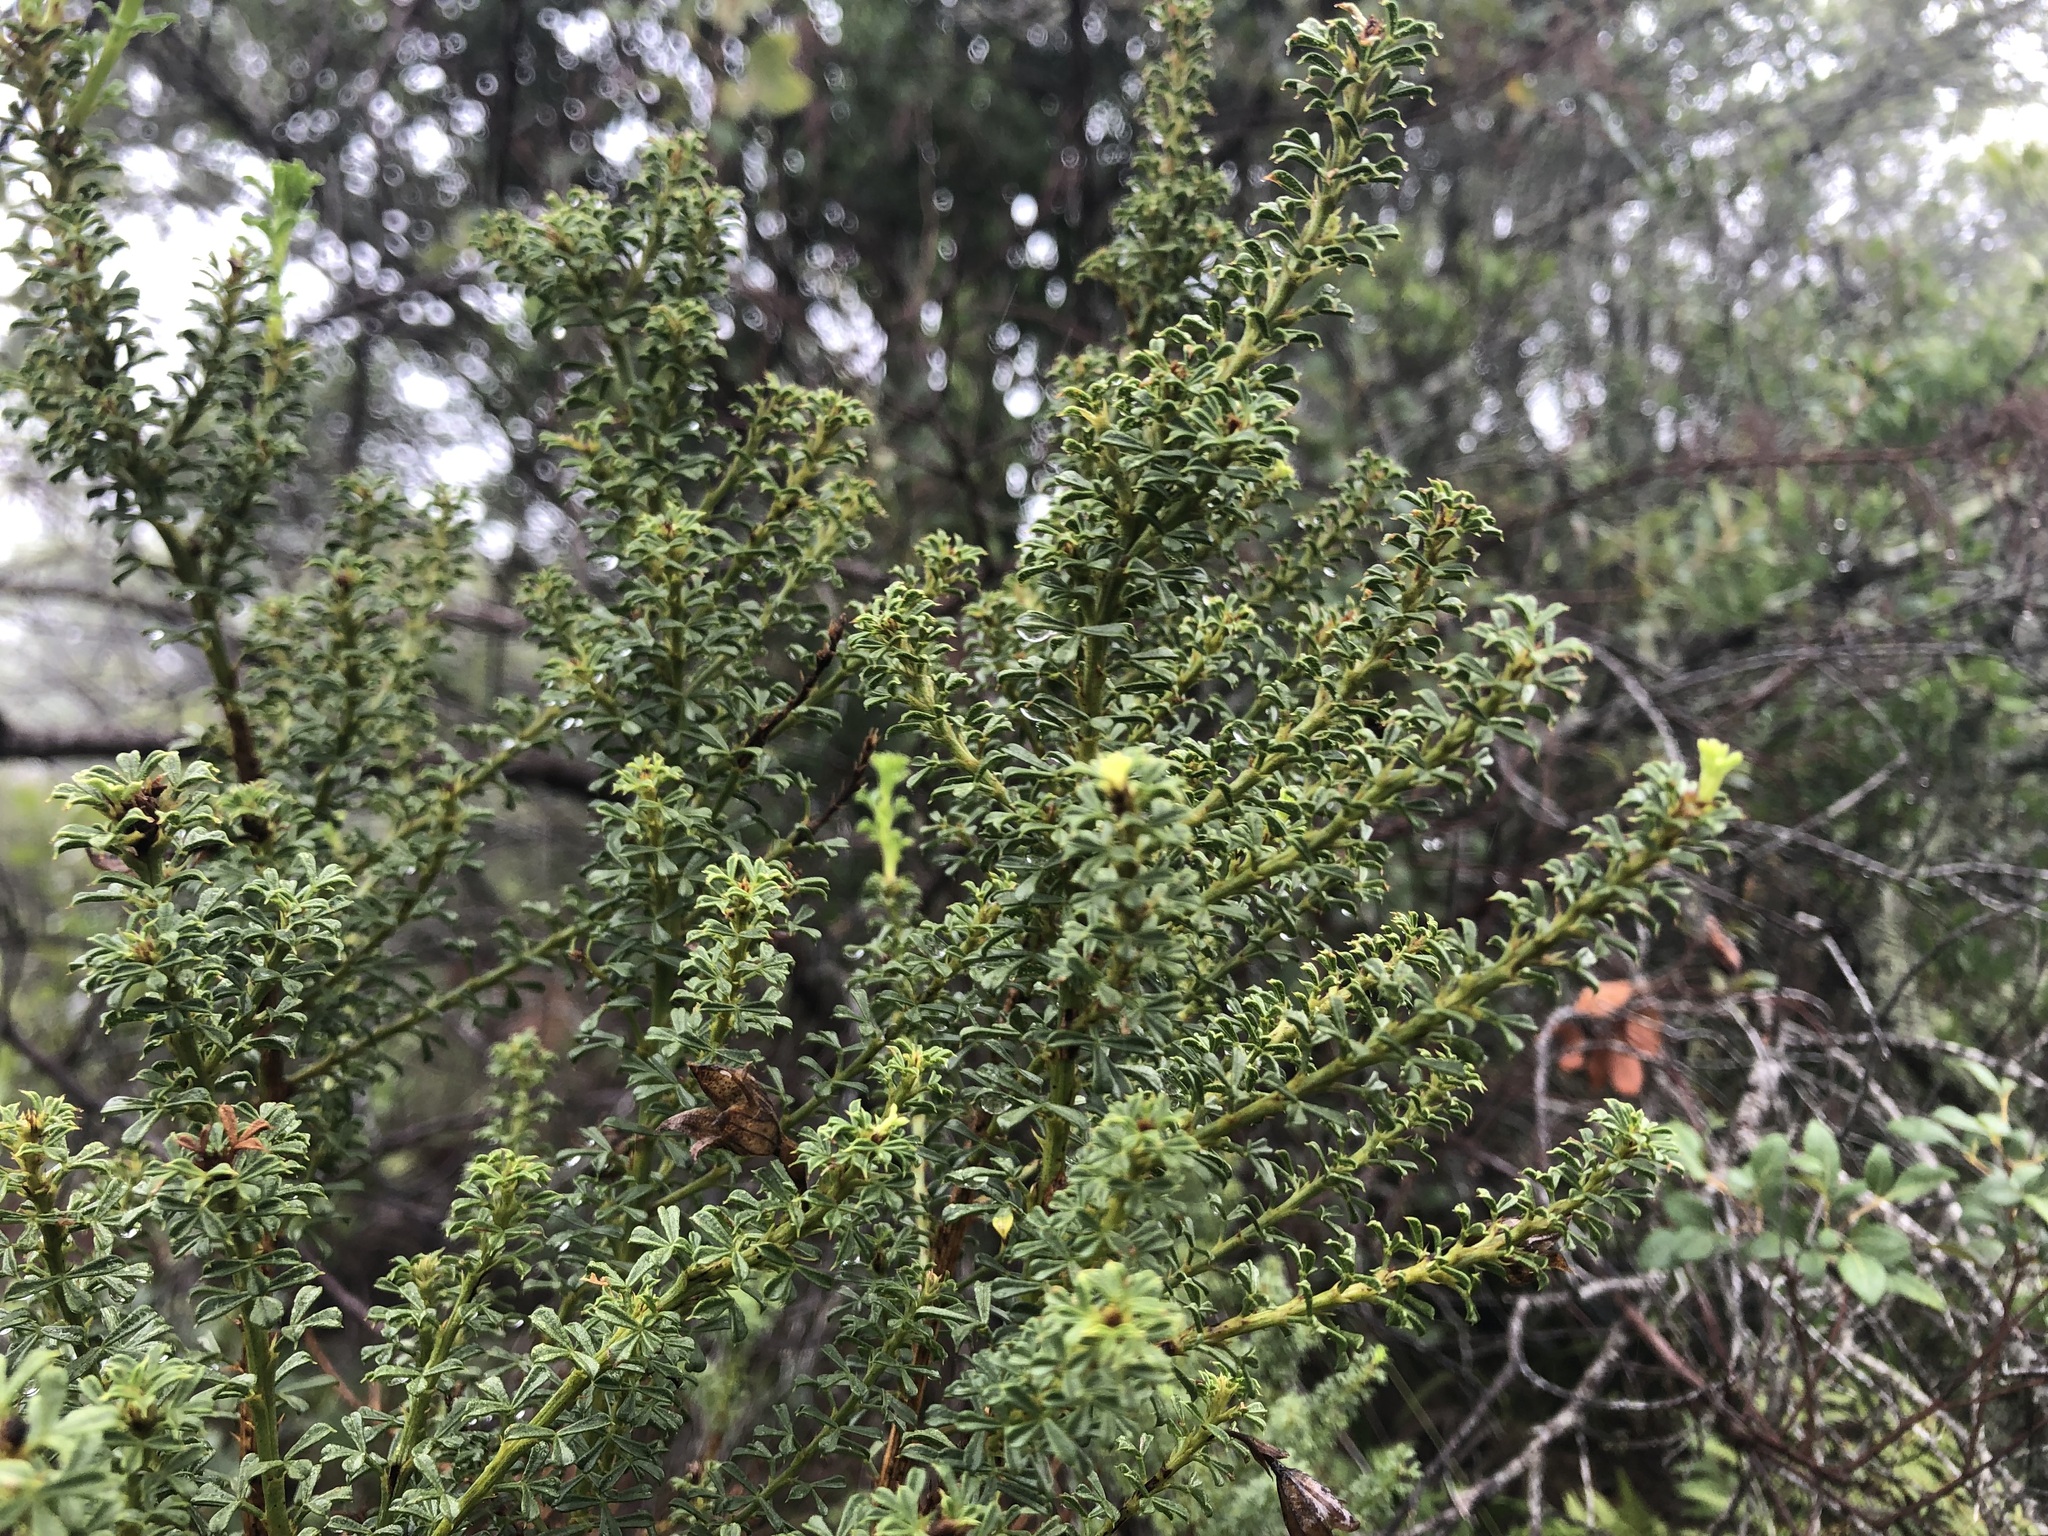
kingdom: Plantae
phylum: Tracheophyta
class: Magnoliopsida
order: Fabales
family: Fabaceae
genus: Psoralea
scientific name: Psoralea aculeata
